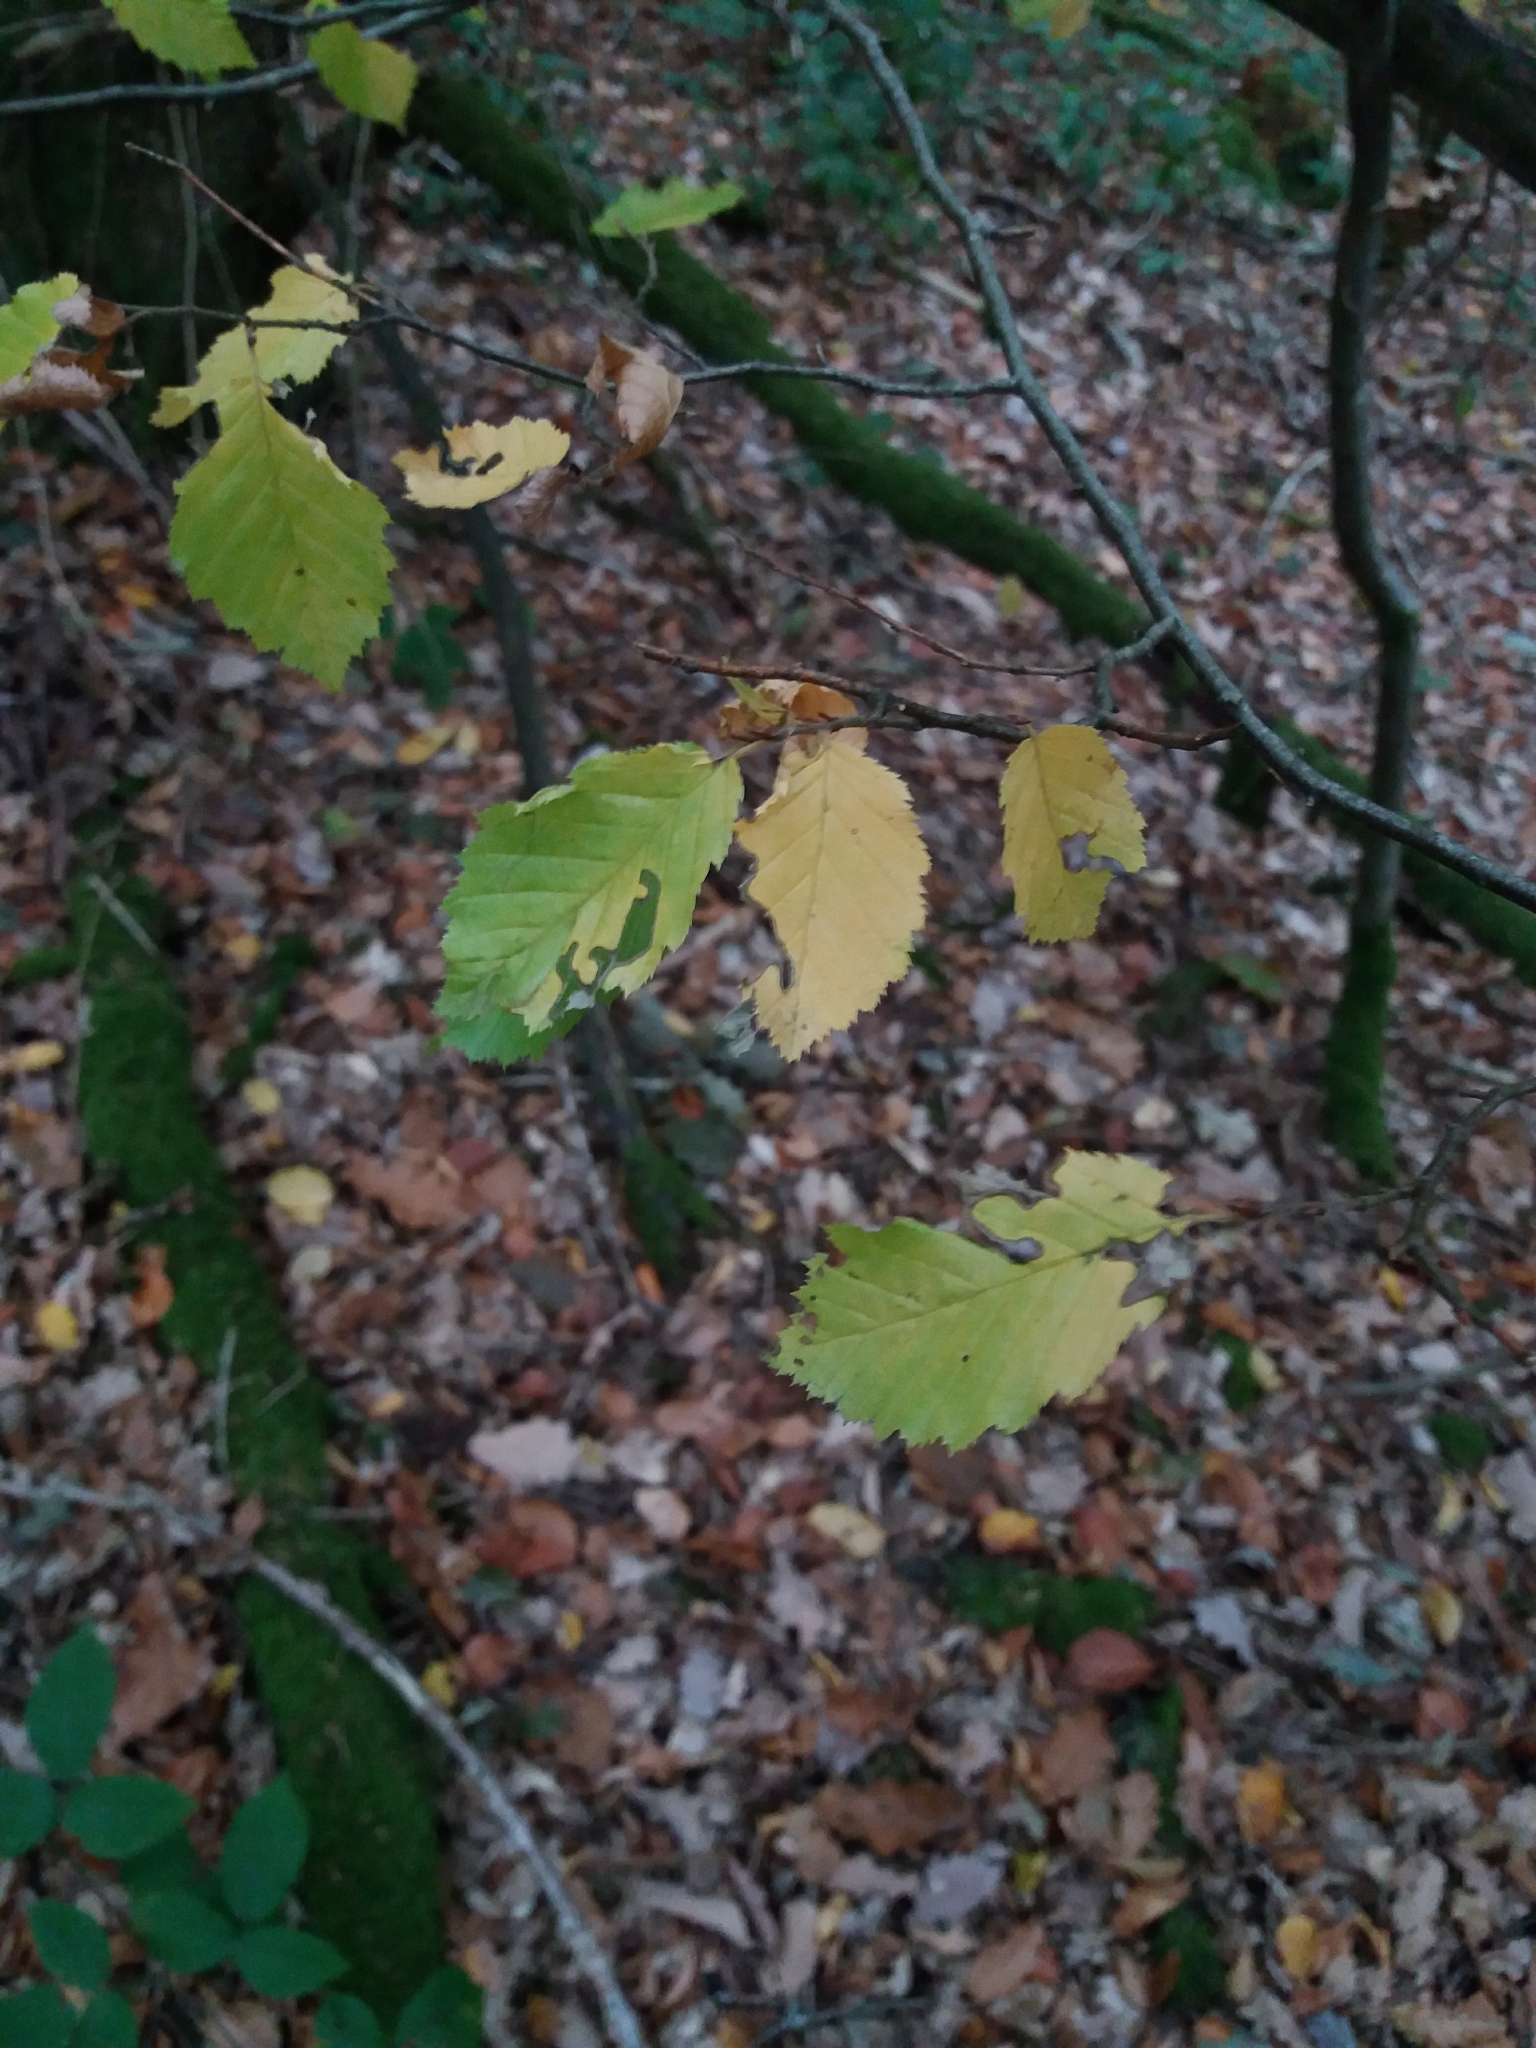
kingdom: Plantae
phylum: Tracheophyta
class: Magnoliopsida
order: Fagales
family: Betulaceae
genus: Carpinus
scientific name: Carpinus betulus
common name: Hornbeam
